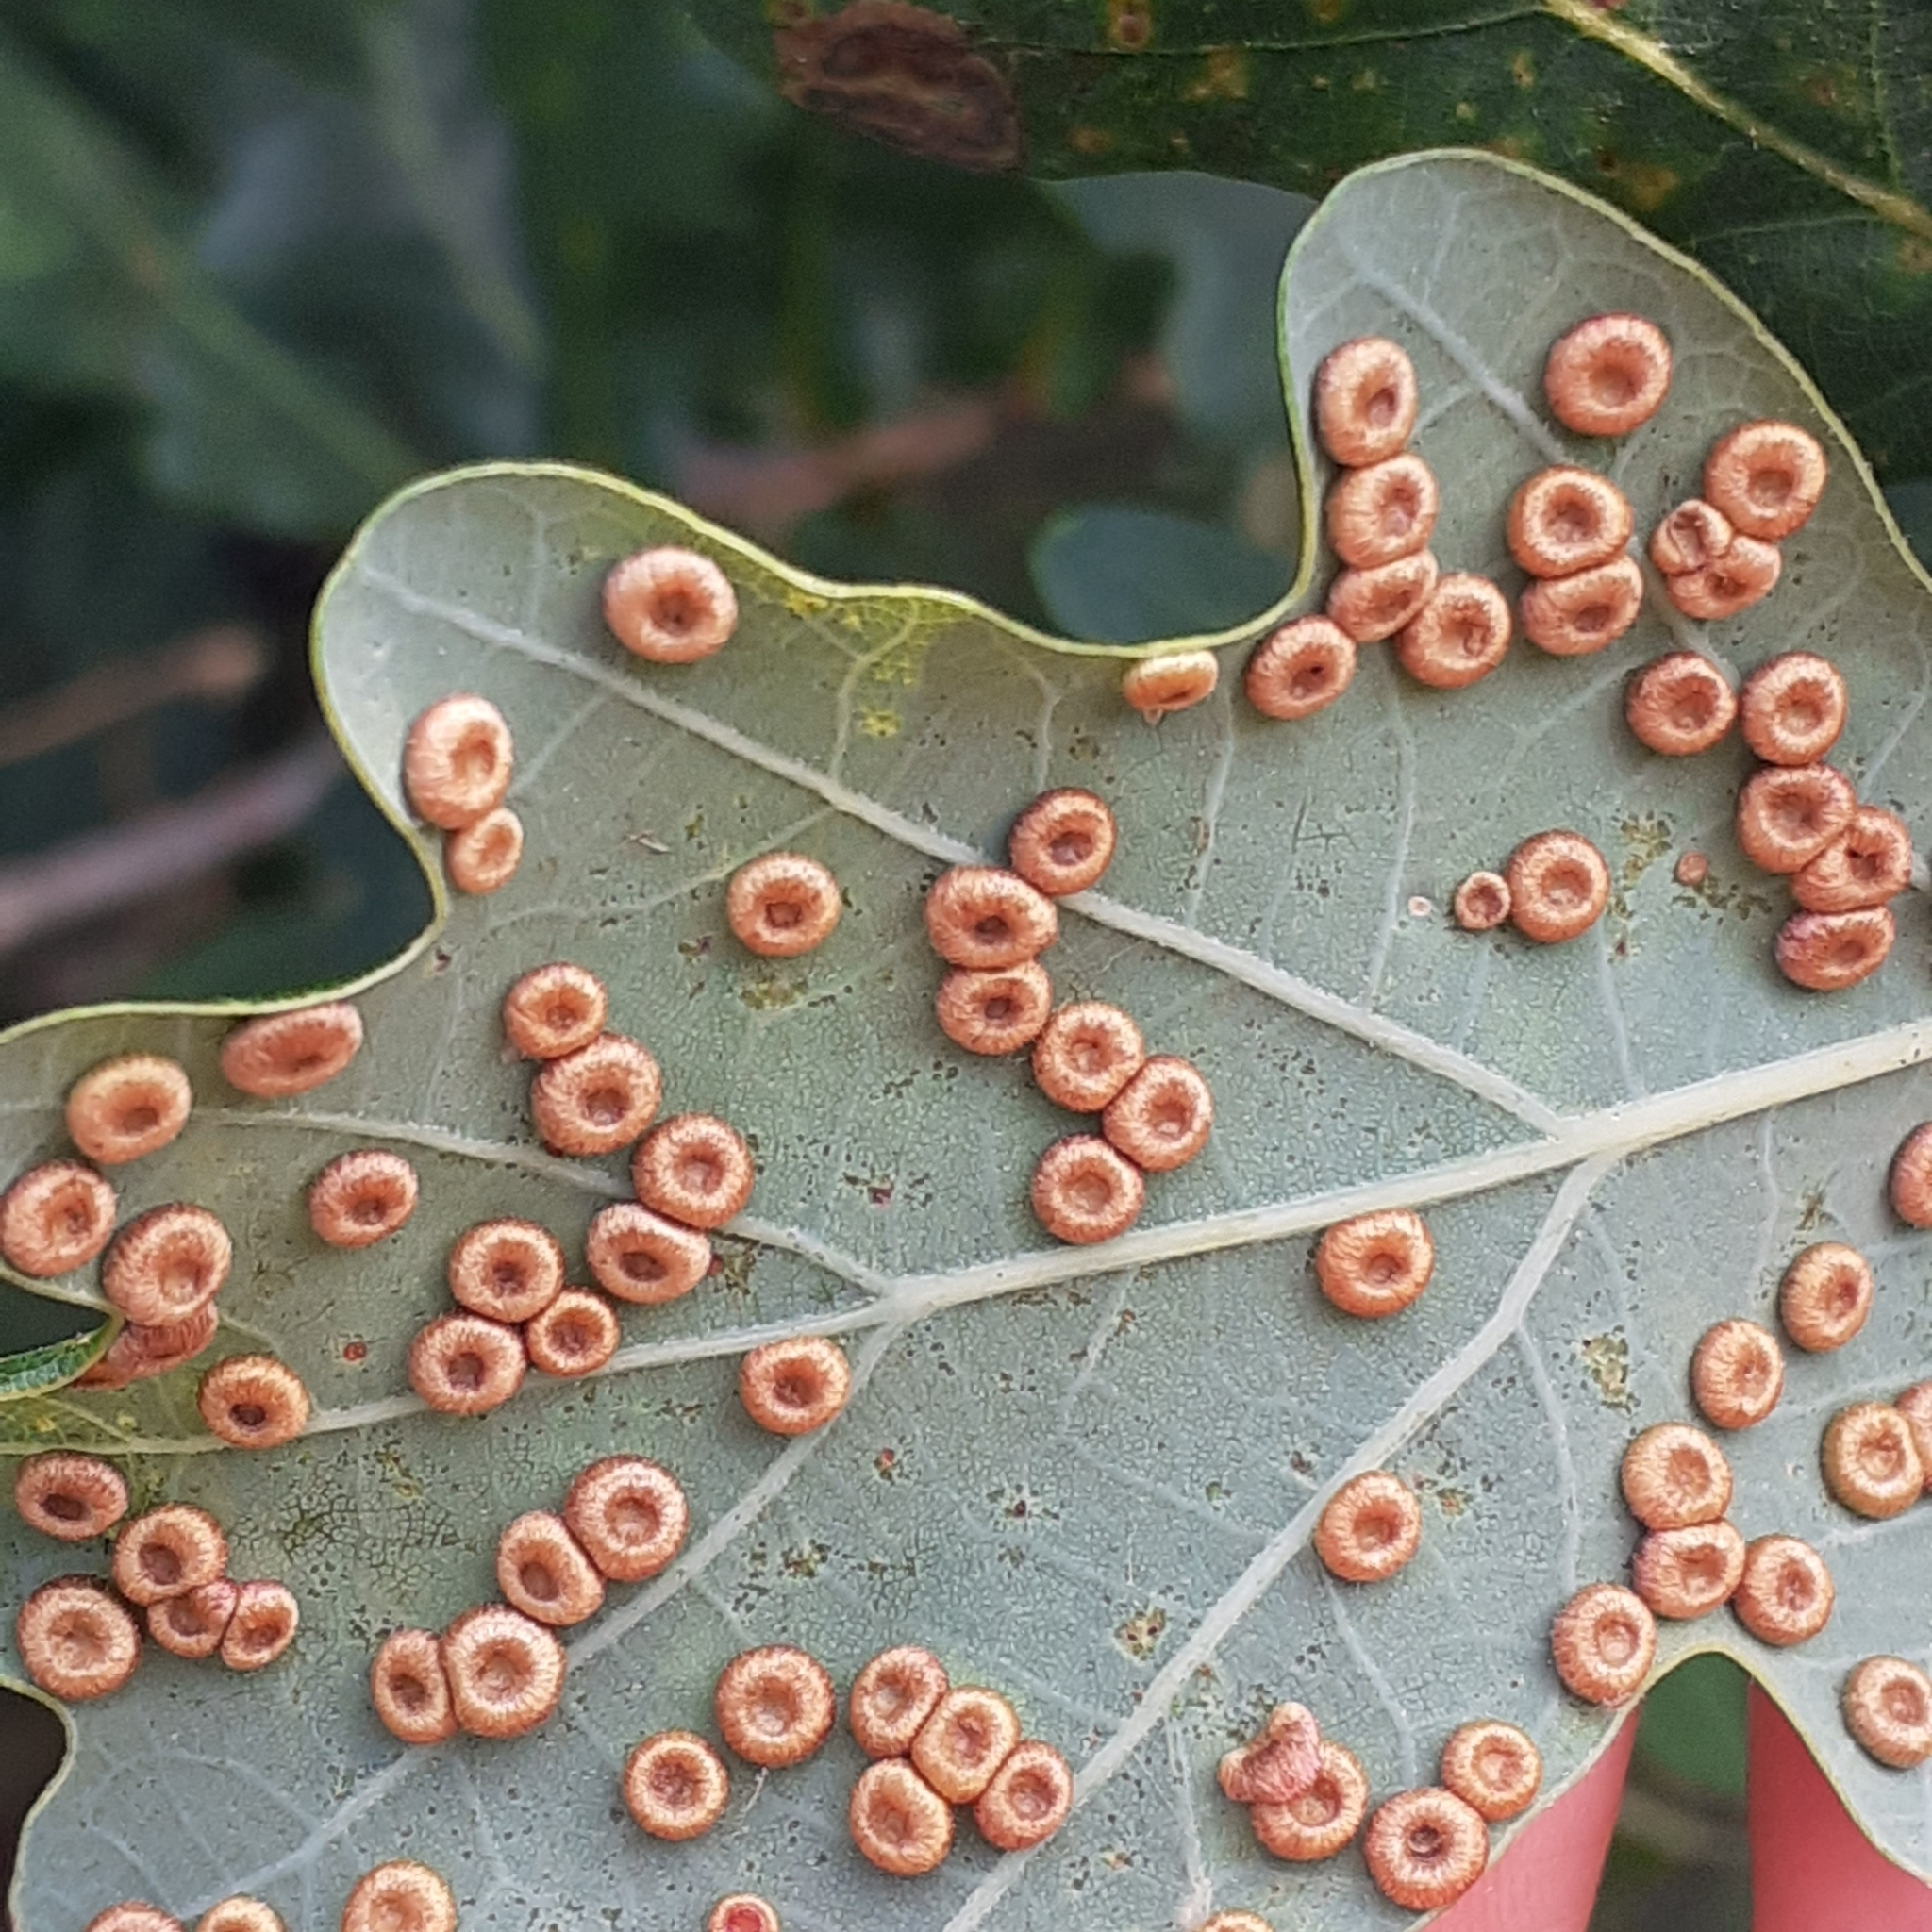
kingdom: Animalia
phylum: Arthropoda
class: Insecta
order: Hymenoptera
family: Cynipidae
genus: Neuroterus
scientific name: Neuroterus numismalis
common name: Silk-button spangle gall
